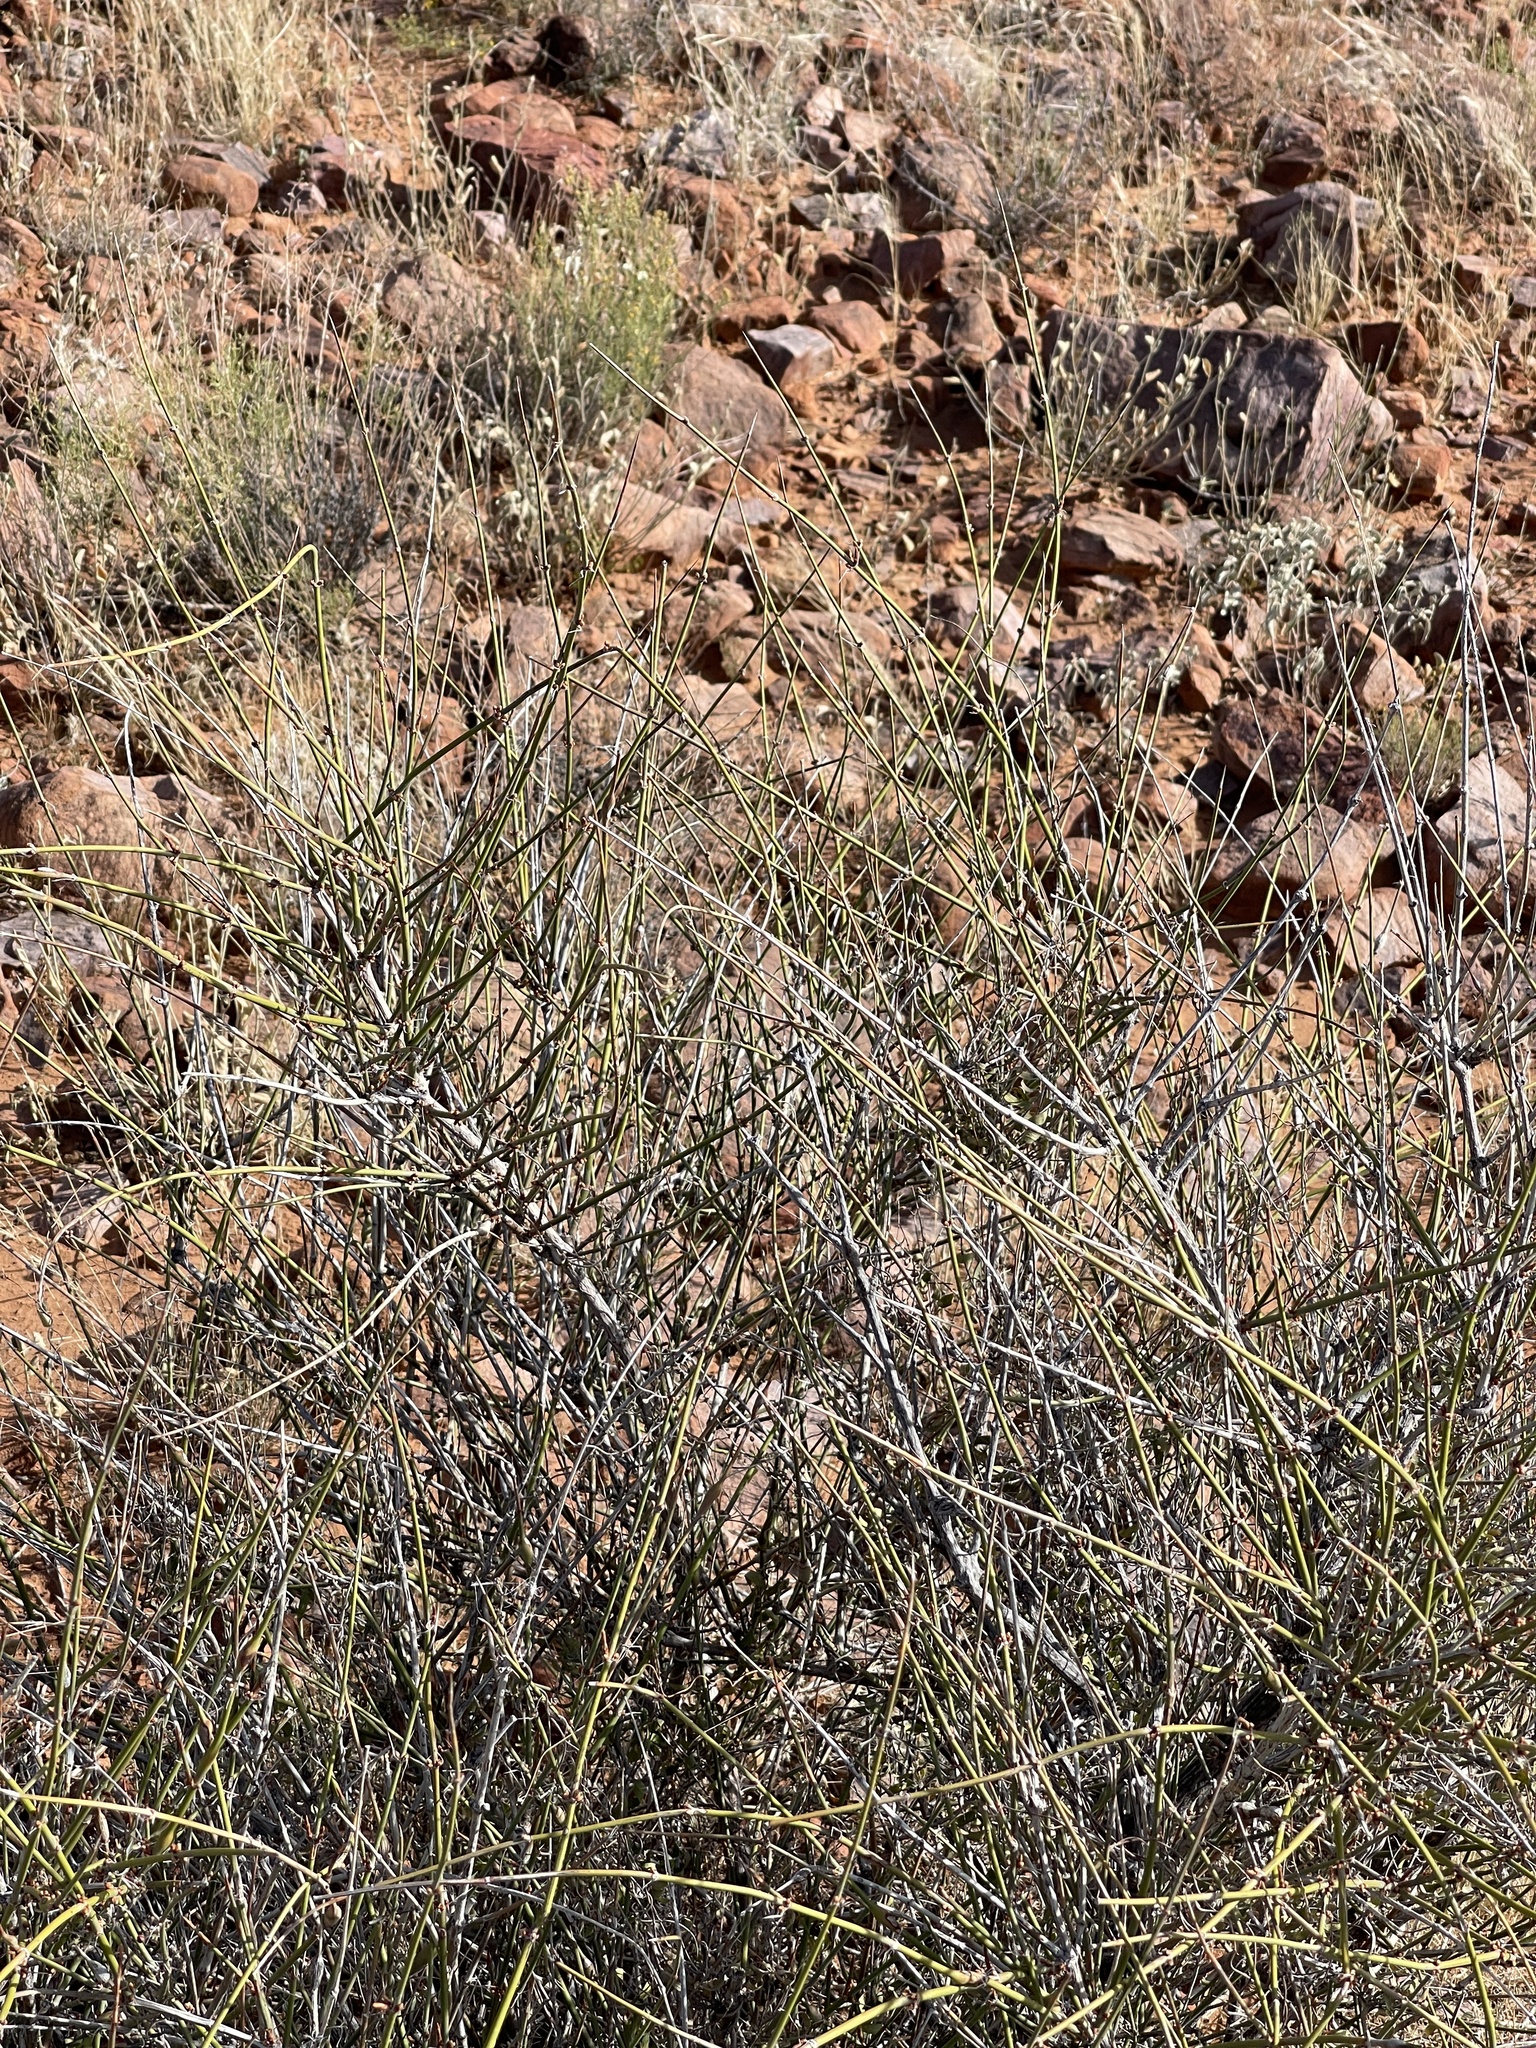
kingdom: Plantae
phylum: Tracheophyta
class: Gnetopsida
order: Ephedrales
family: Ephedraceae
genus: Ephedra
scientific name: Ephedra trifurca
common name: Mexican-tea
